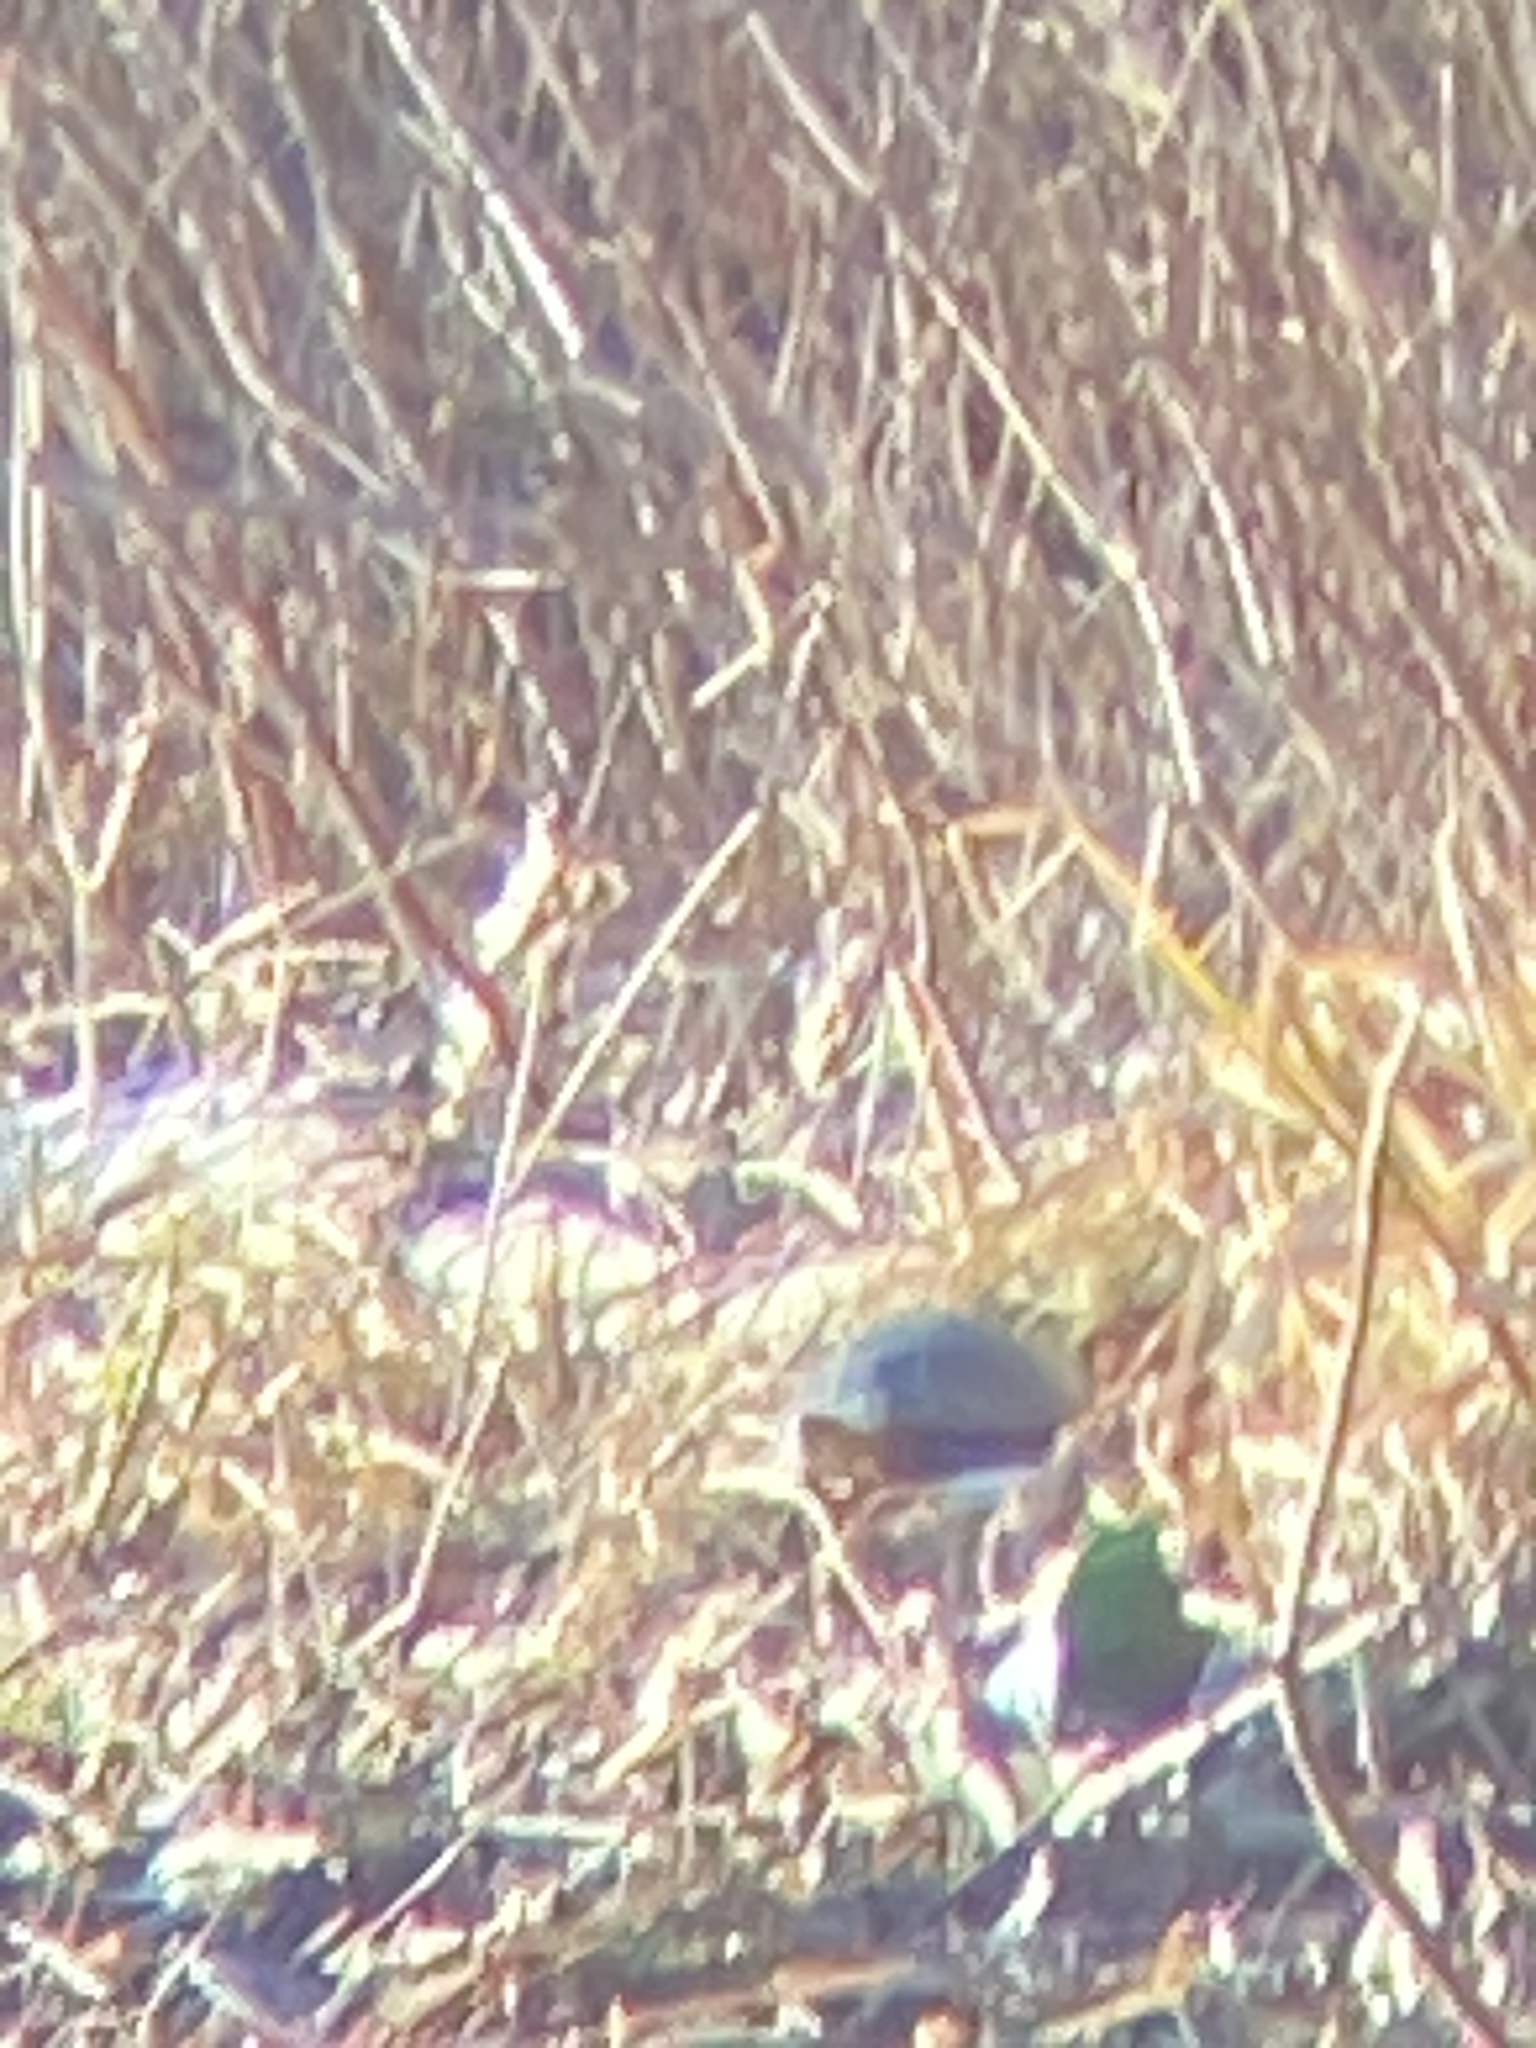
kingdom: Animalia
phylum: Chordata
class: Testudines
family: Emydidae
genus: Chrysemys
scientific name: Chrysemys picta
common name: Painted turtle
